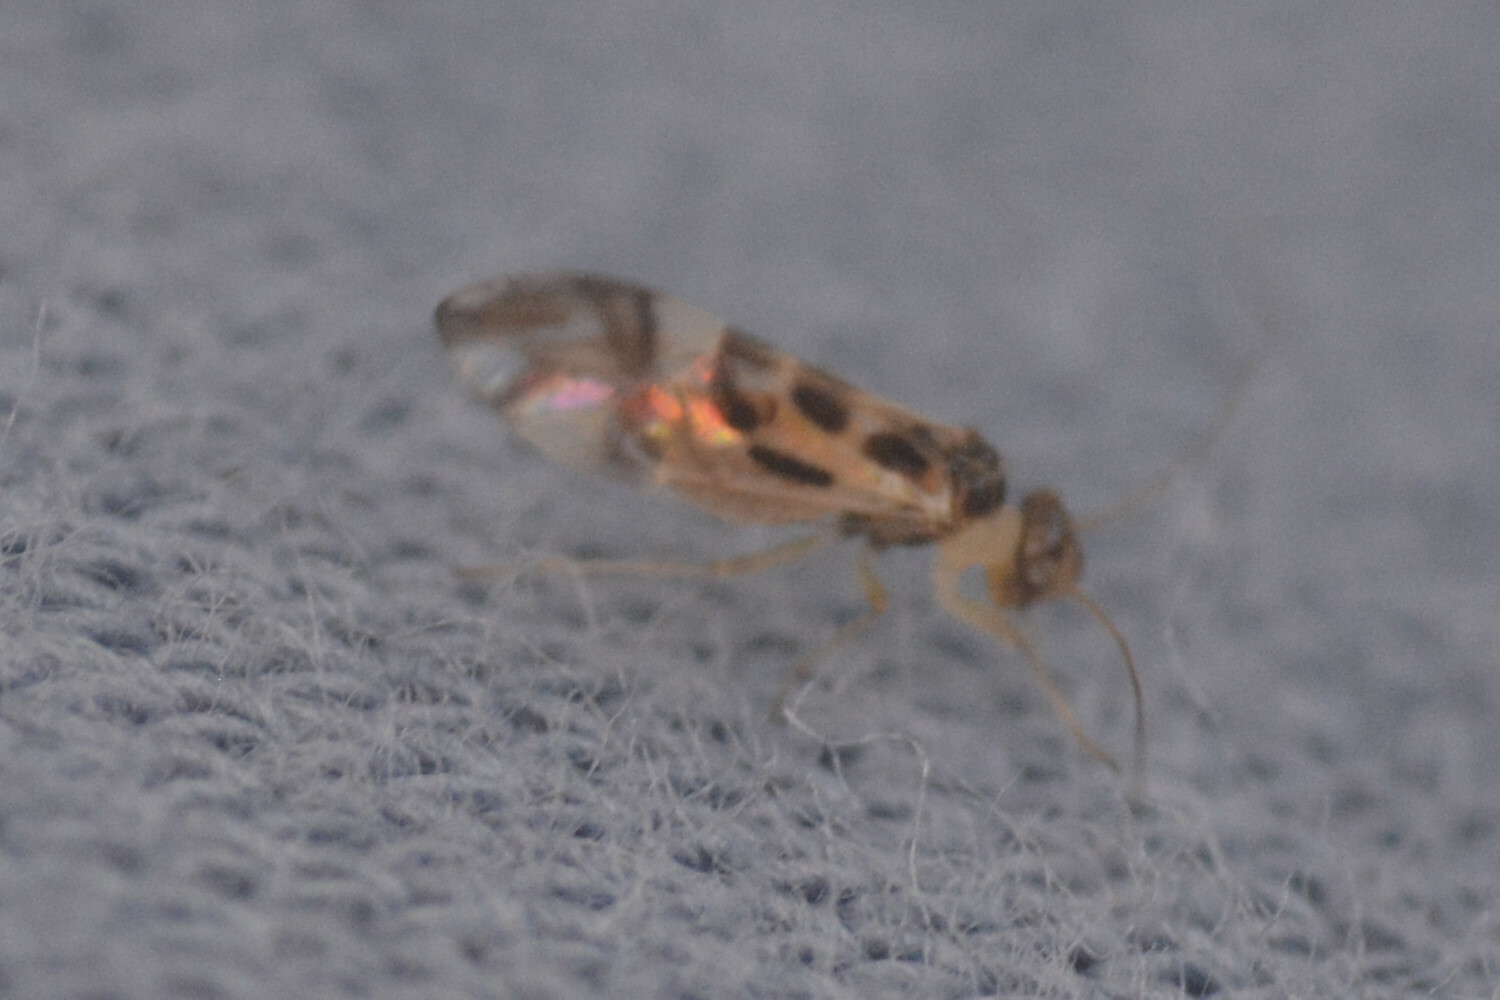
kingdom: Animalia
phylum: Arthropoda
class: Insecta
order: Psocodea
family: Stenopsocidae
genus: Graphopsocus
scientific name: Graphopsocus cruciatus
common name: Lizard bark louse
